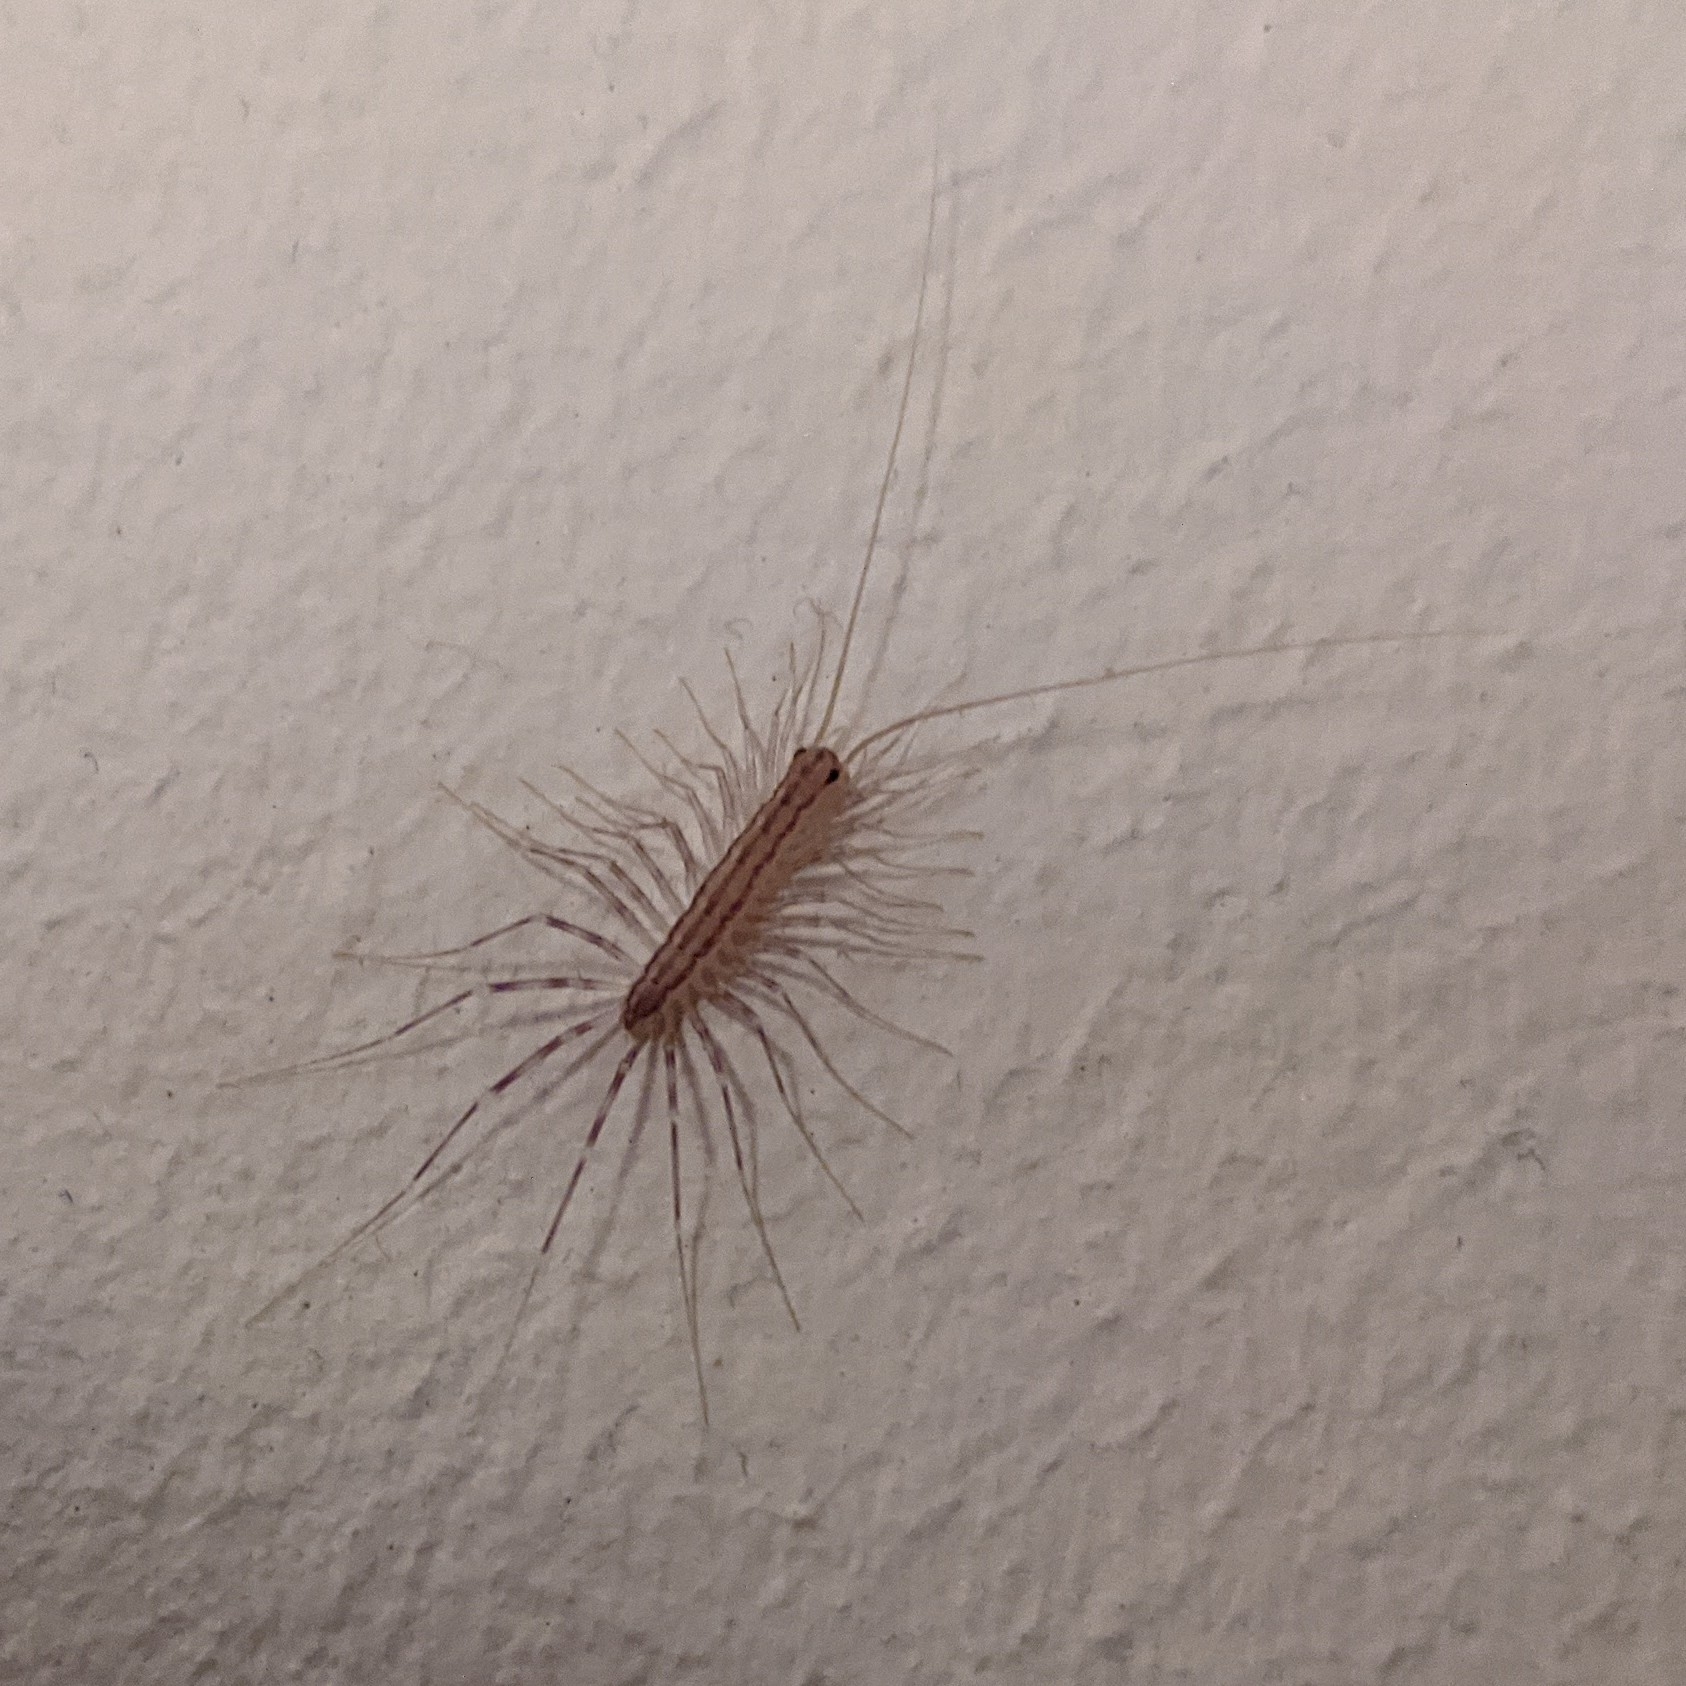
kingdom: Animalia
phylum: Arthropoda
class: Chilopoda
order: Scutigeromorpha
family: Scutigeridae
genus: Scutigera
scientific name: Scutigera coleoptrata
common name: House centipede
